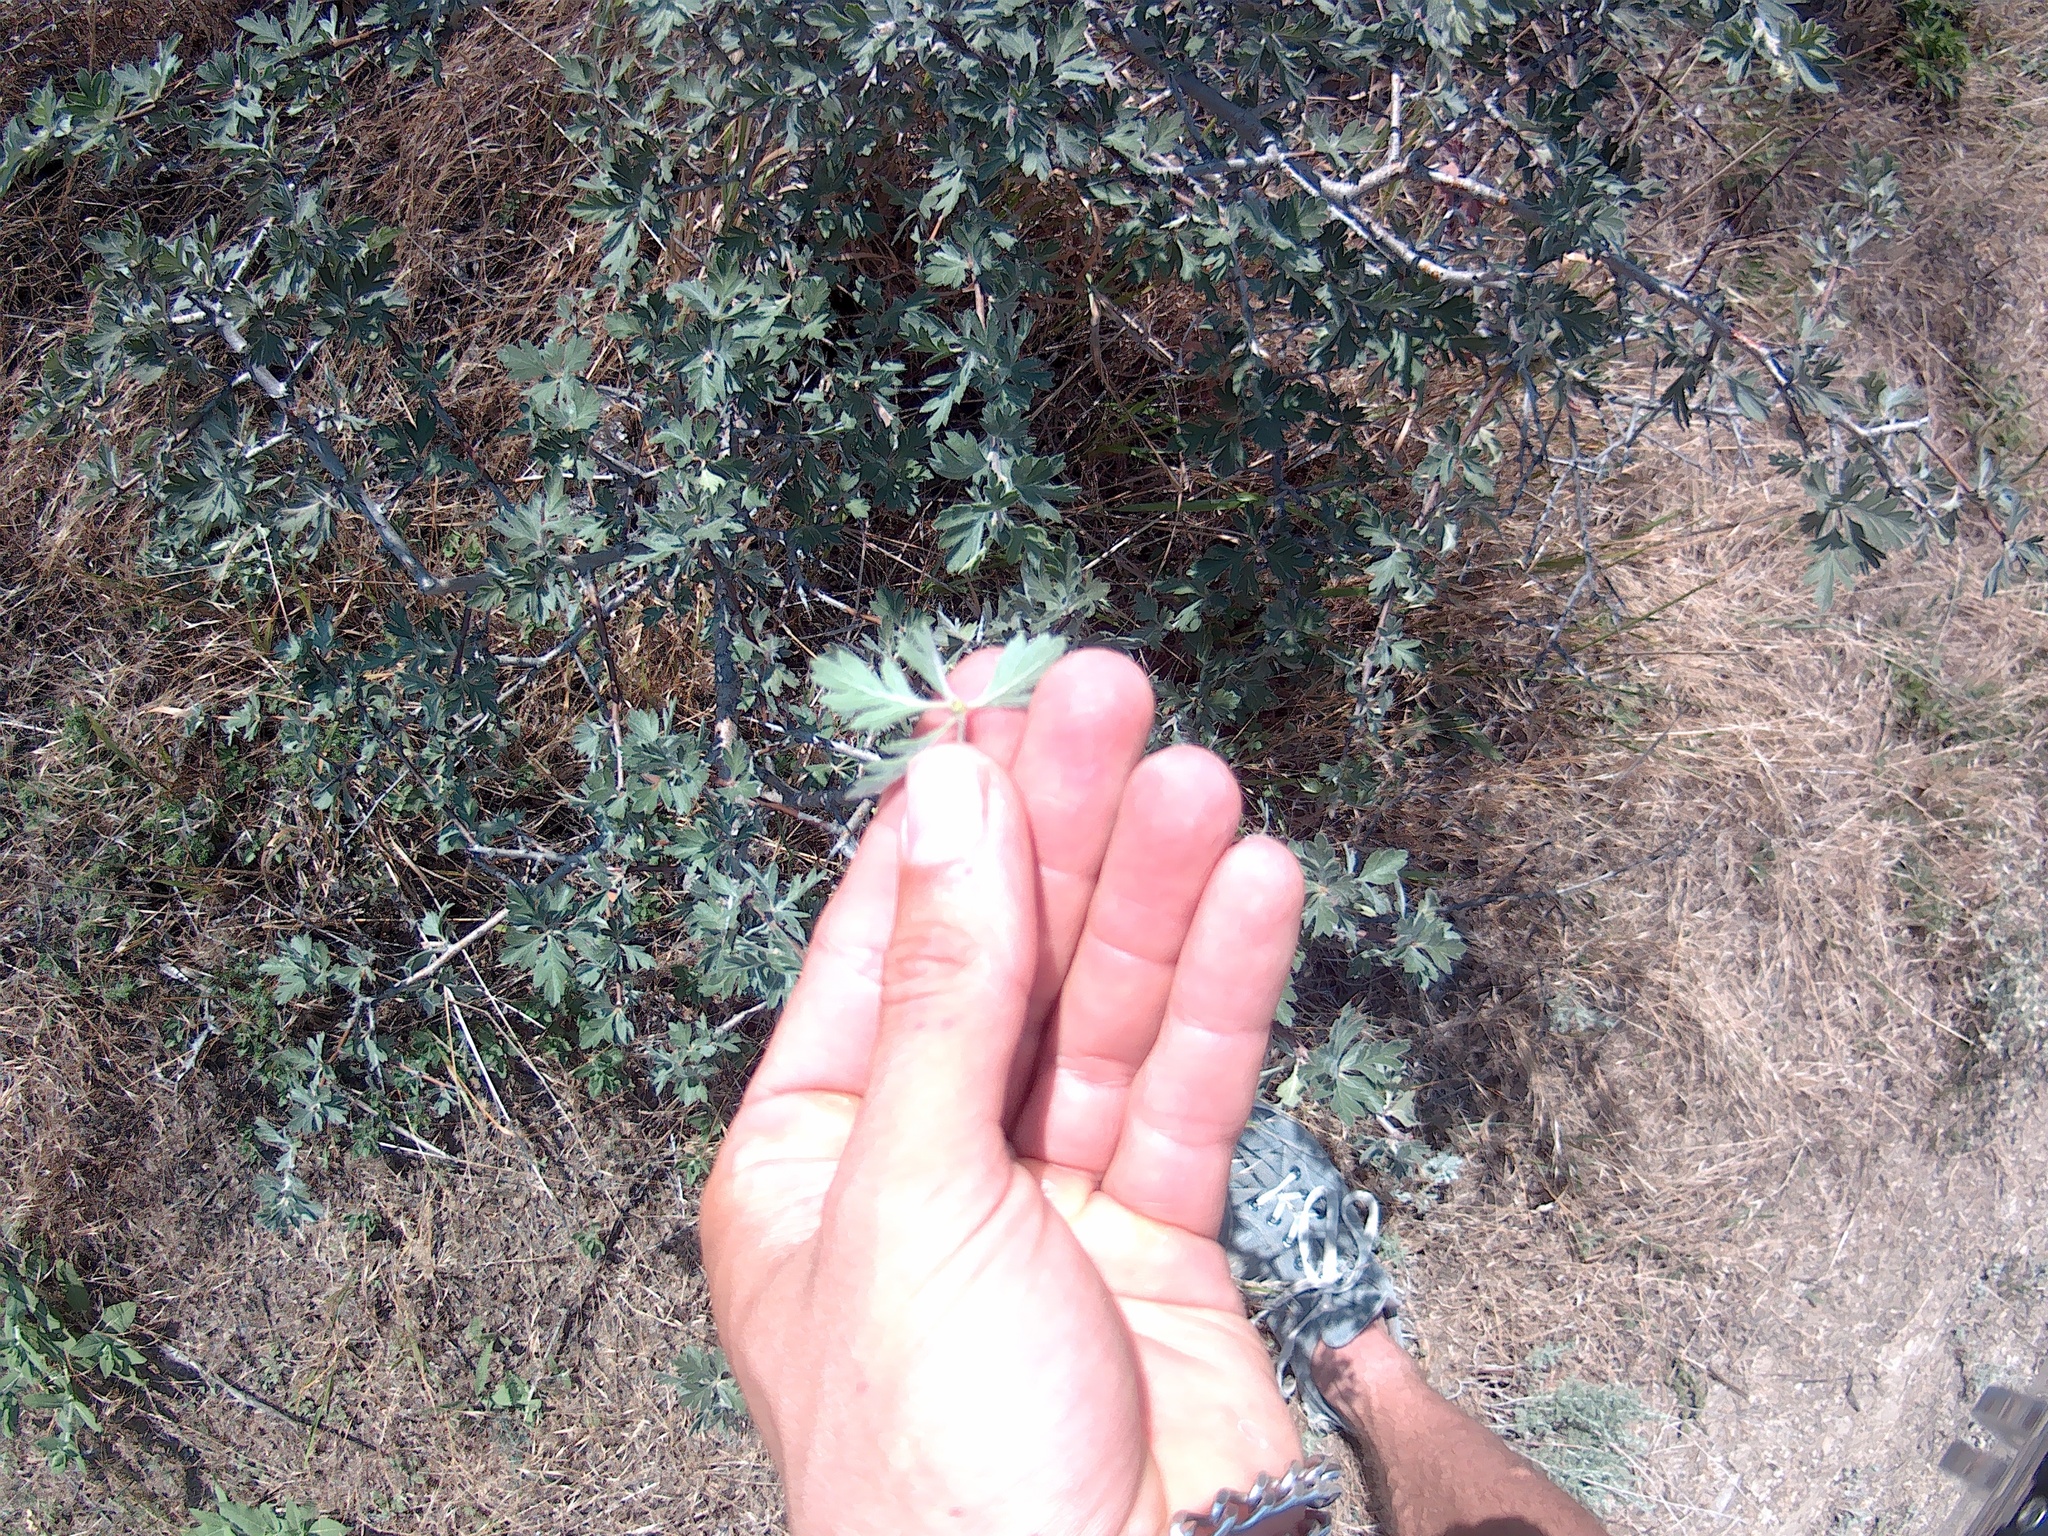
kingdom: Plantae
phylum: Tracheophyta
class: Magnoliopsida
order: Rosales
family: Rosaceae
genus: Crataegus
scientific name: Crataegus orientalis
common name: Oriental hawthorn
